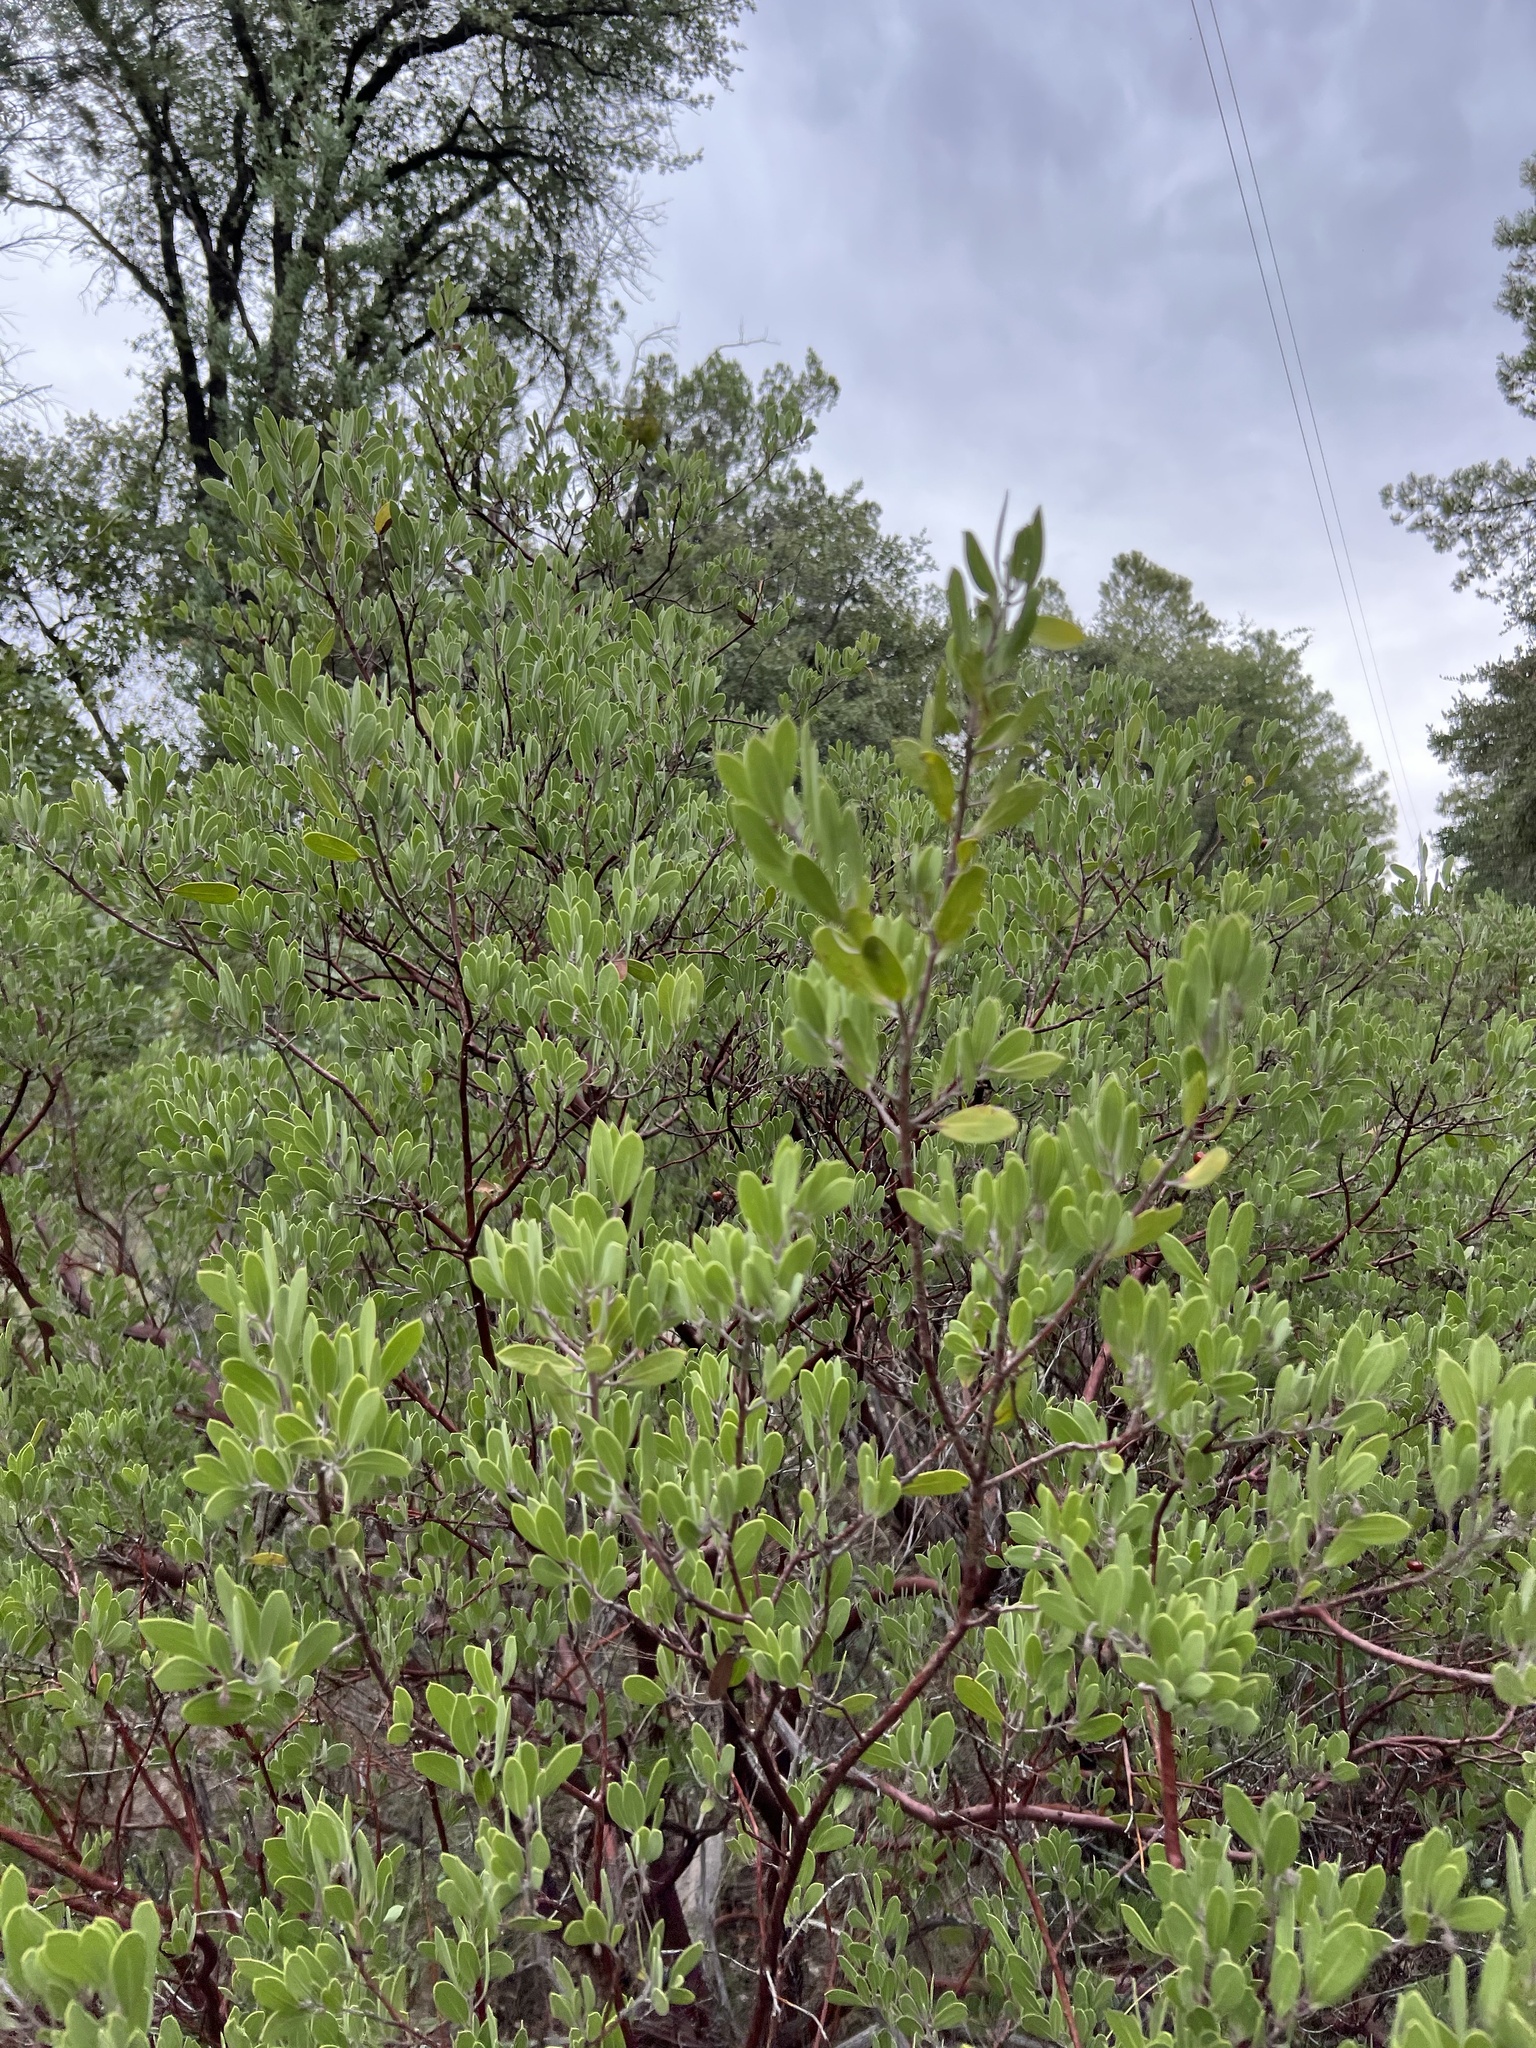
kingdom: Plantae
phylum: Tracheophyta
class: Magnoliopsida
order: Ericales
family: Ericaceae
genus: Arctostaphylos
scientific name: Arctostaphylos pungens
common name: Mexican manzanita
